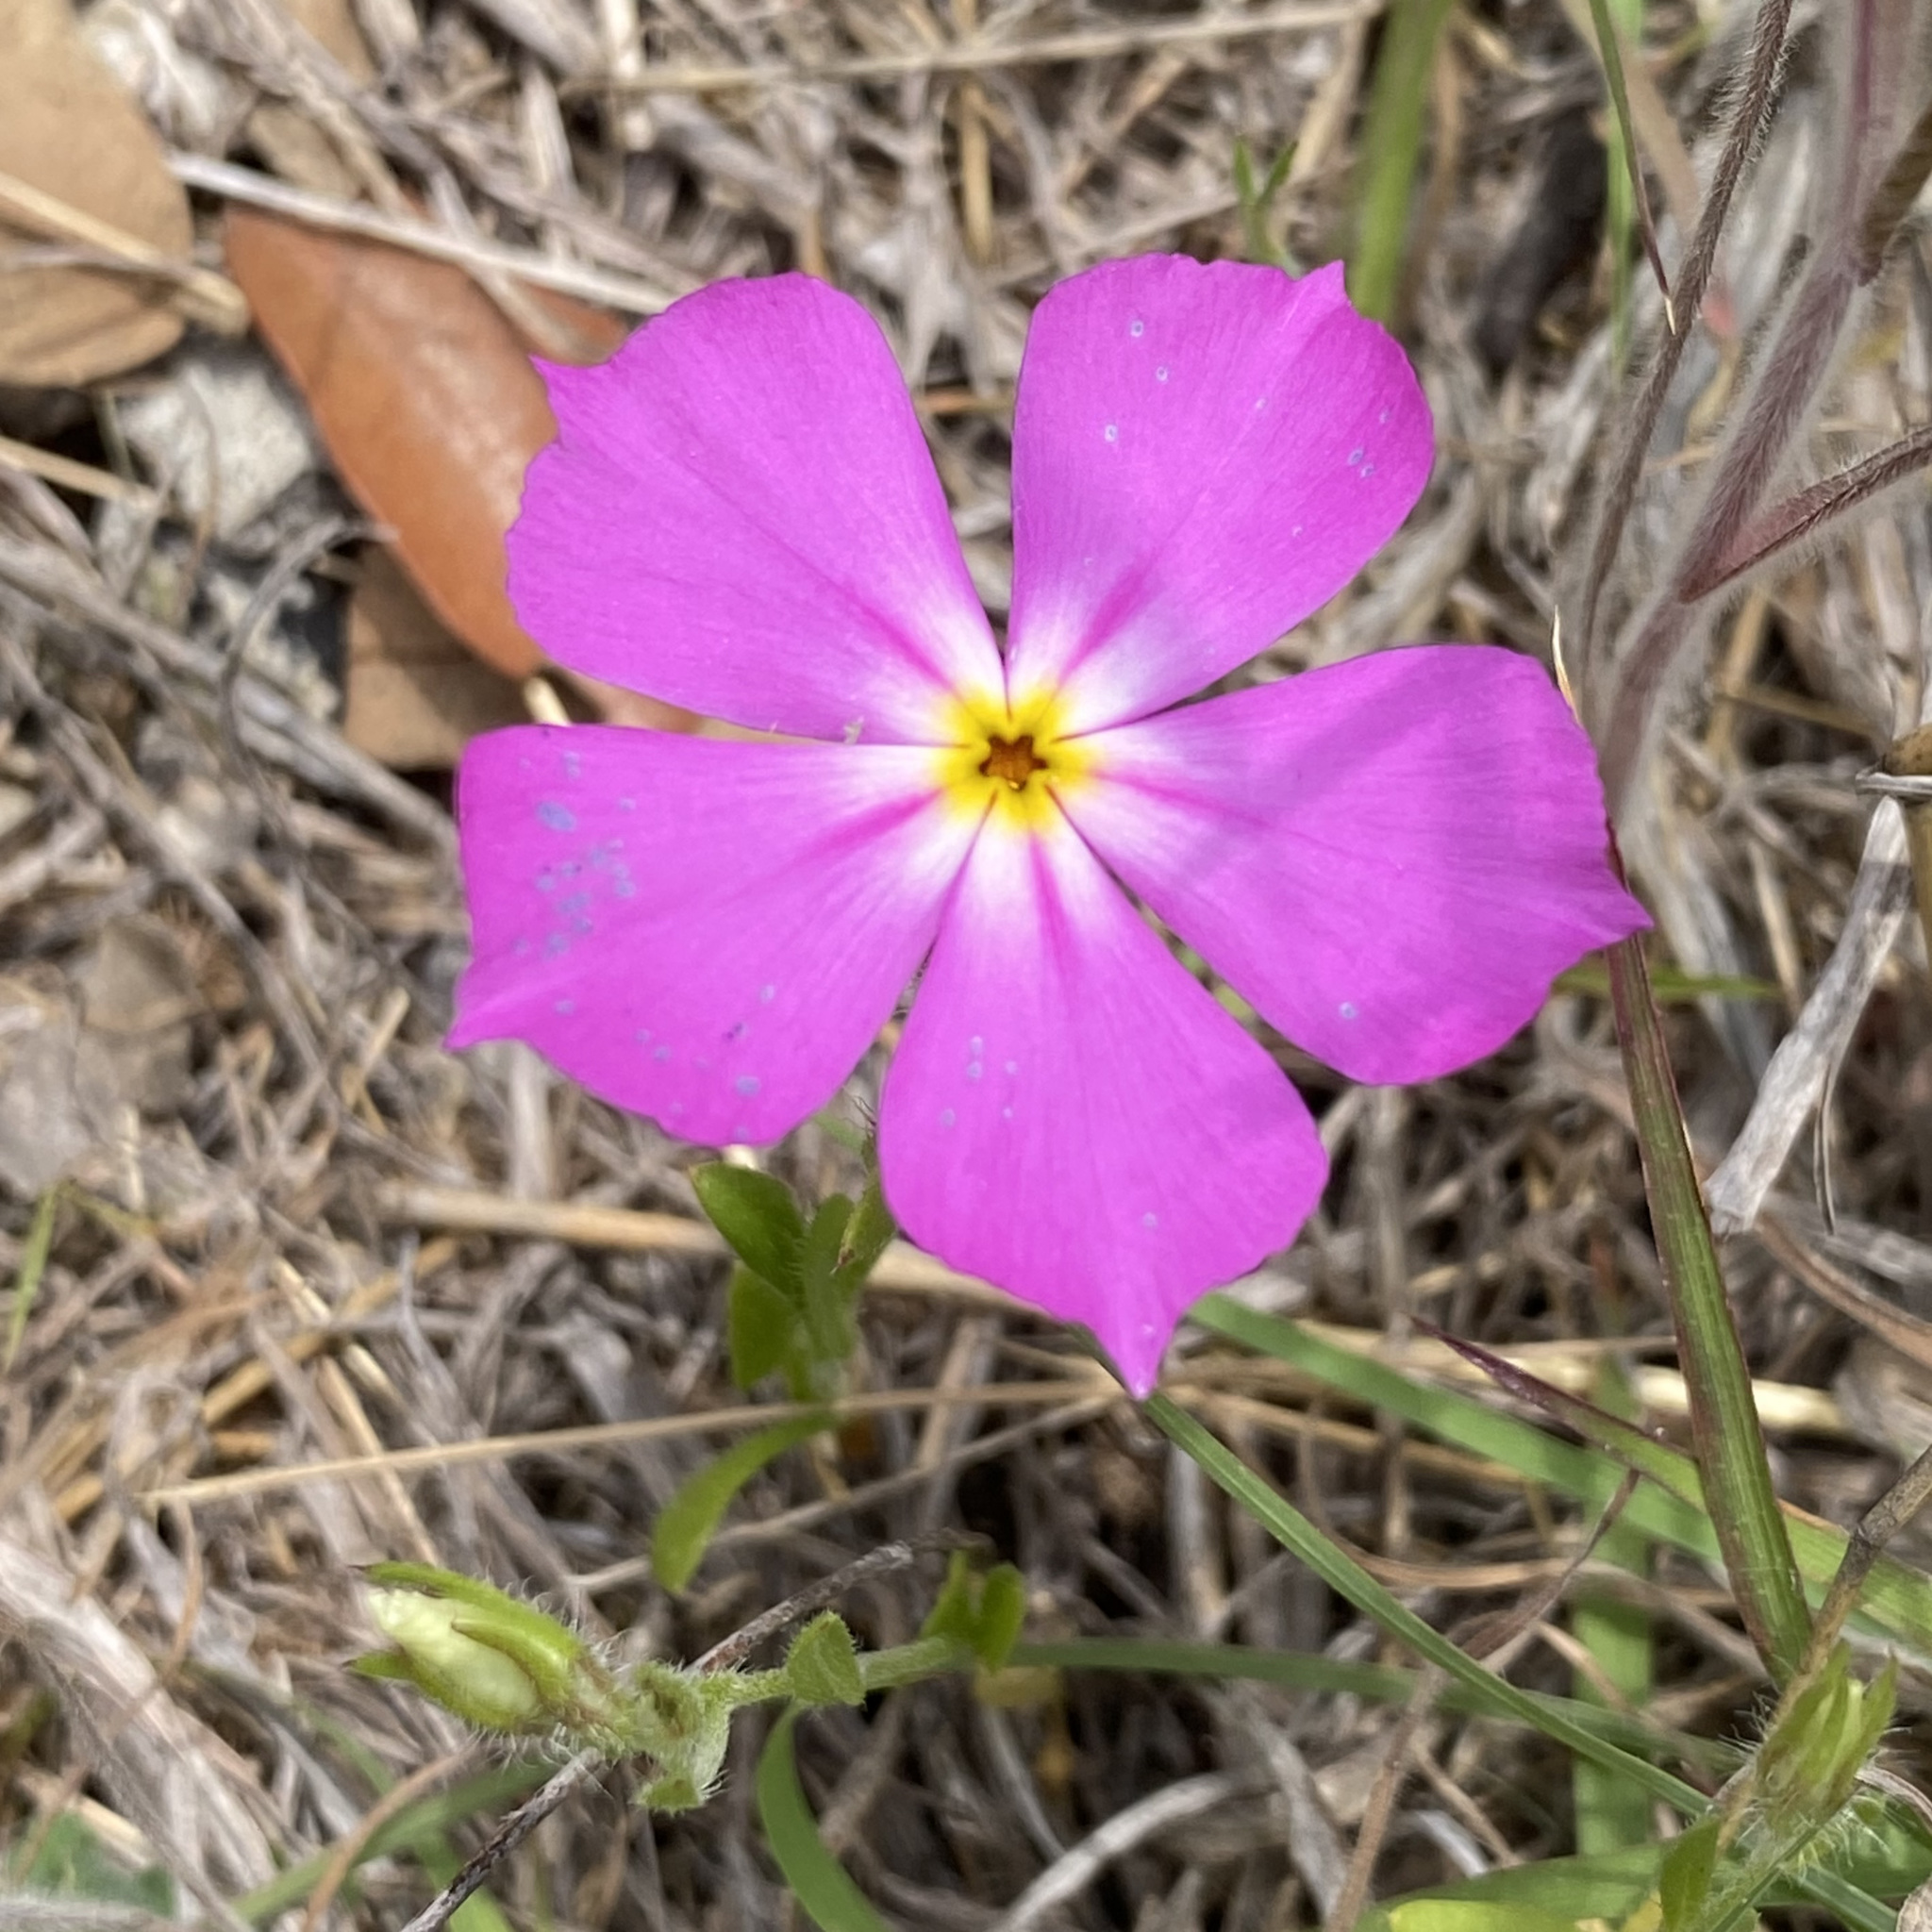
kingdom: Plantae
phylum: Tracheophyta
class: Magnoliopsida
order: Ericales
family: Polemoniaceae
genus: Phlox
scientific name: Phlox roemeriana
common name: Roemer's phlox
